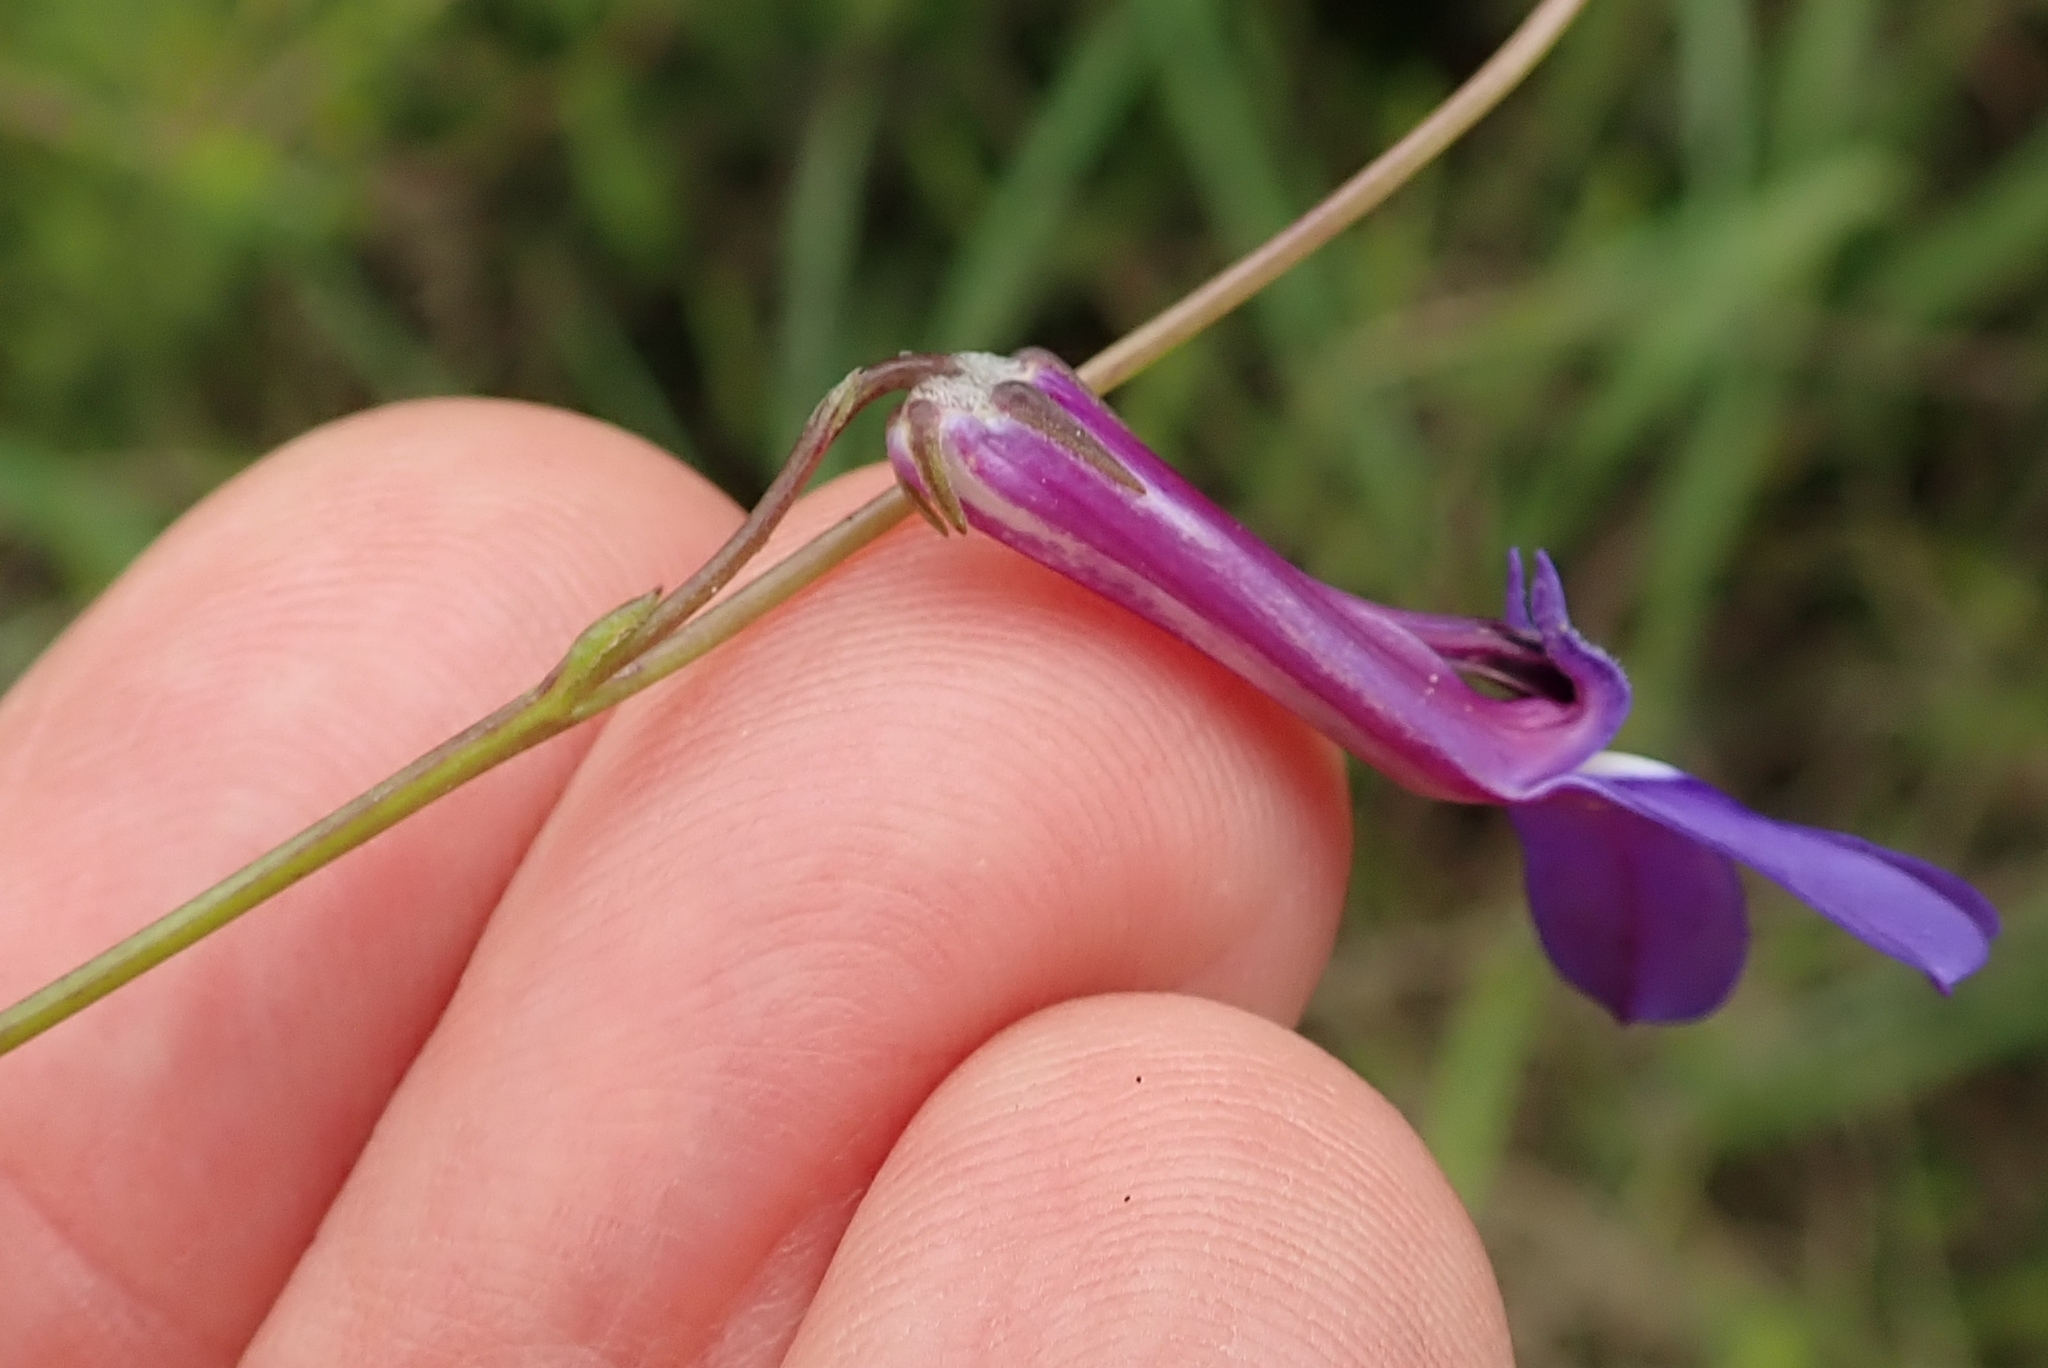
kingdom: Plantae
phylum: Tracheophyta
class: Magnoliopsida
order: Asterales
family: Campanulaceae
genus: Lobelia
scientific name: Lobelia tomentosa
